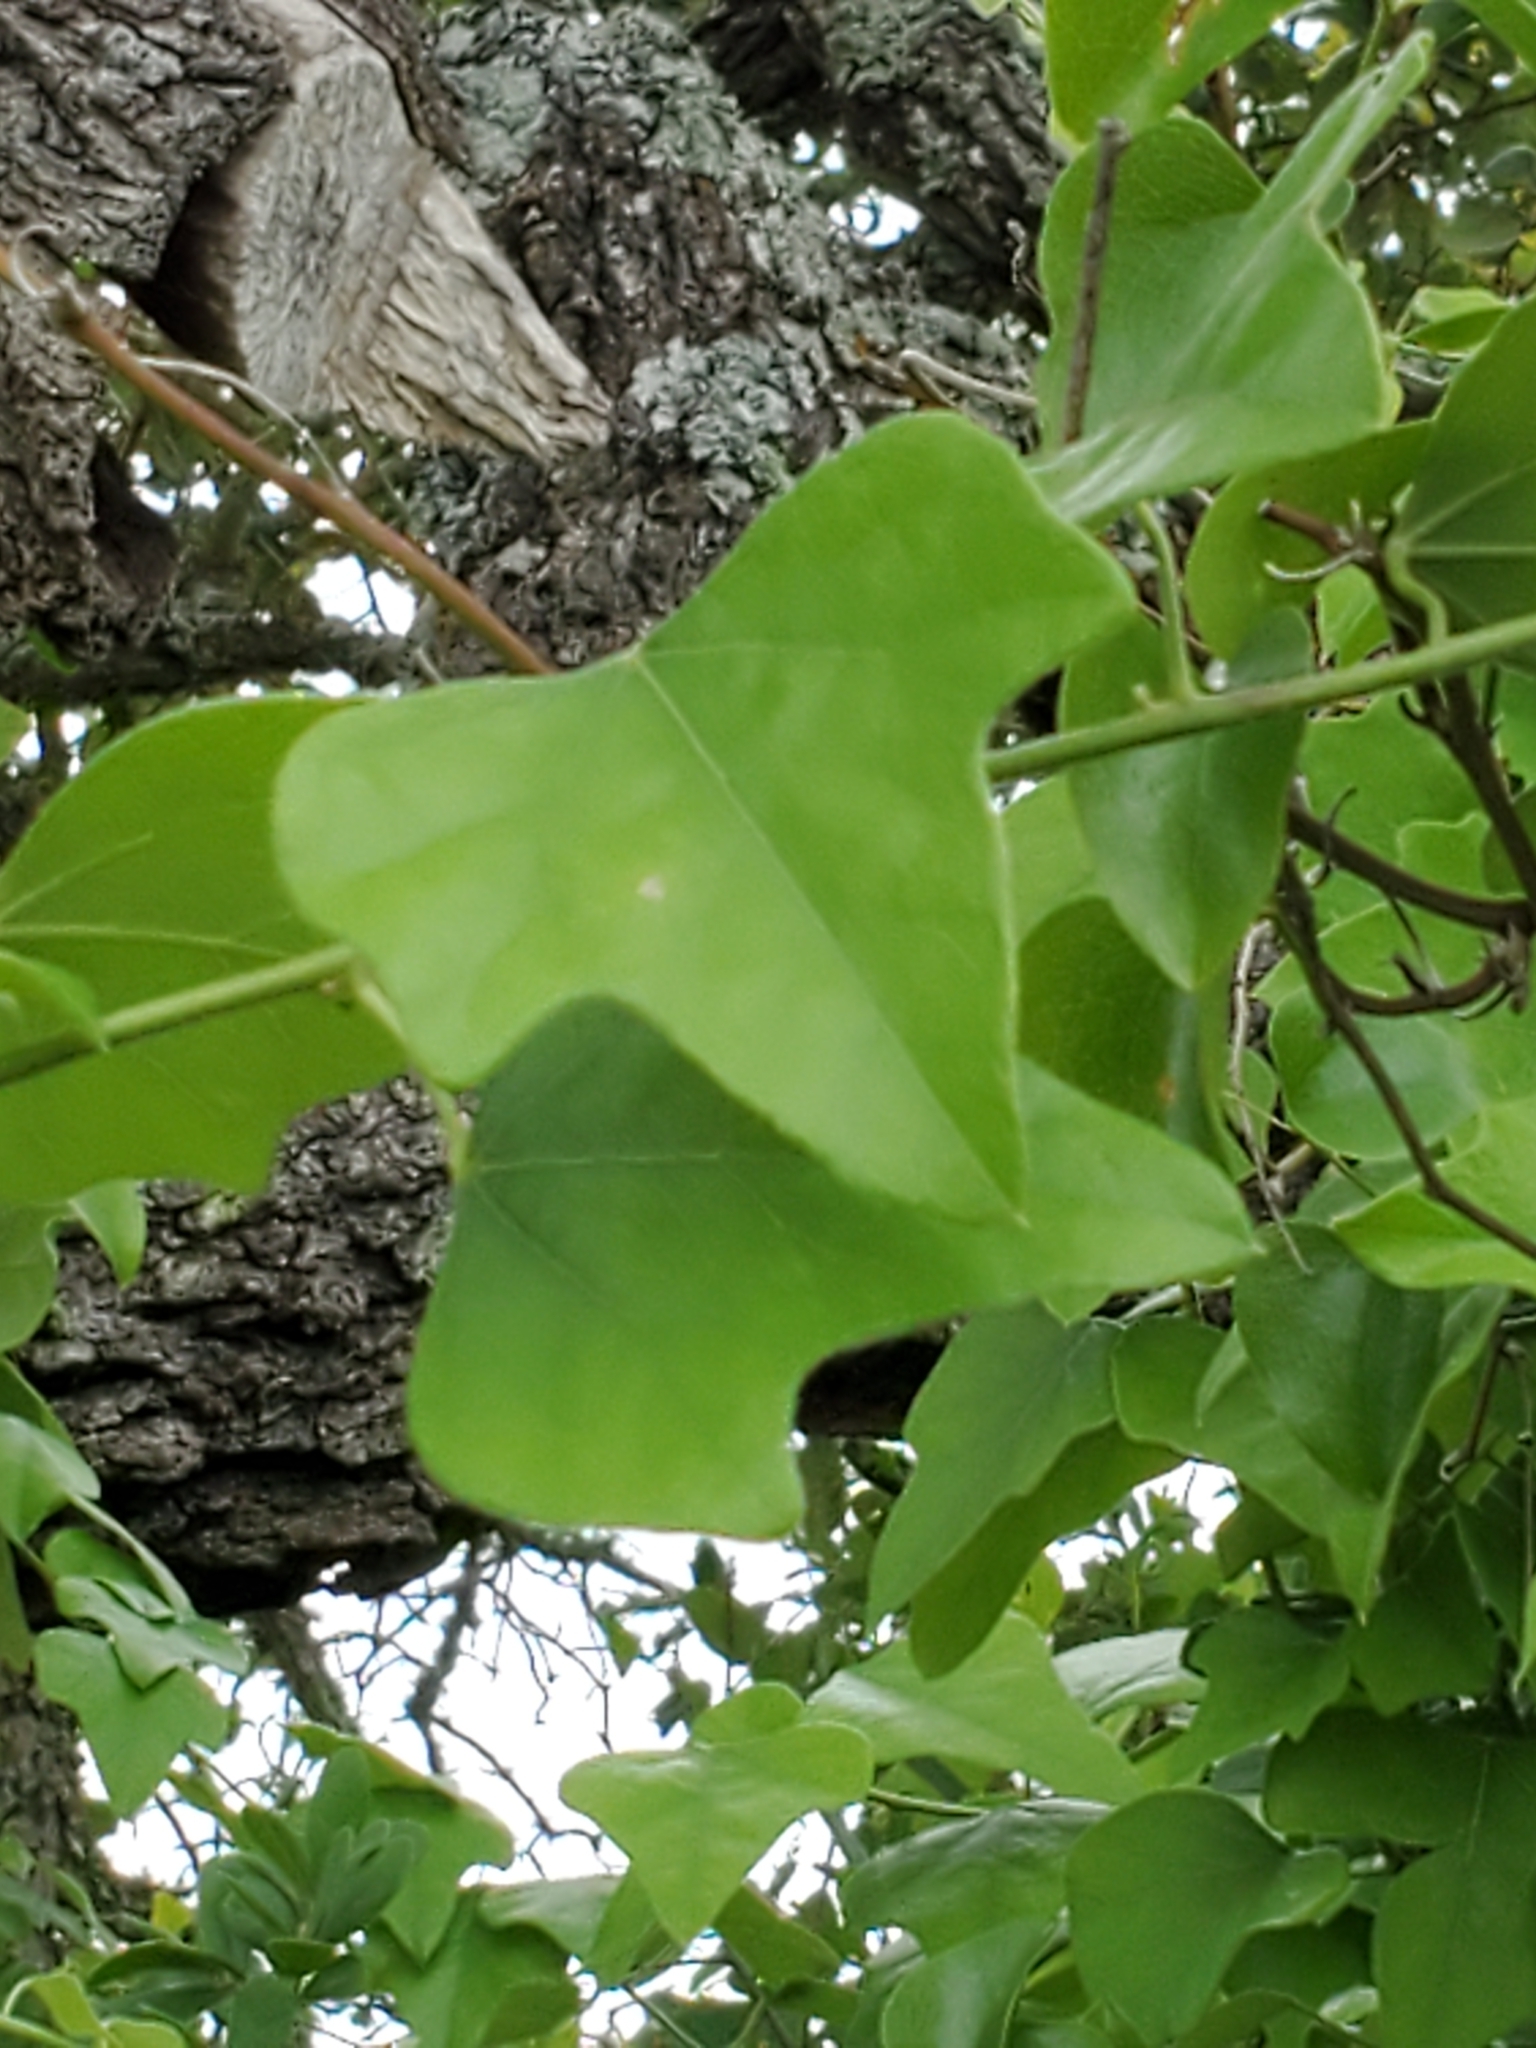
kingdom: Plantae
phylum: Tracheophyta
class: Magnoliopsida
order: Ranunculales
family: Menispermaceae
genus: Cocculus
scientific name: Cocculus carolinus
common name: Carolina moonseed
